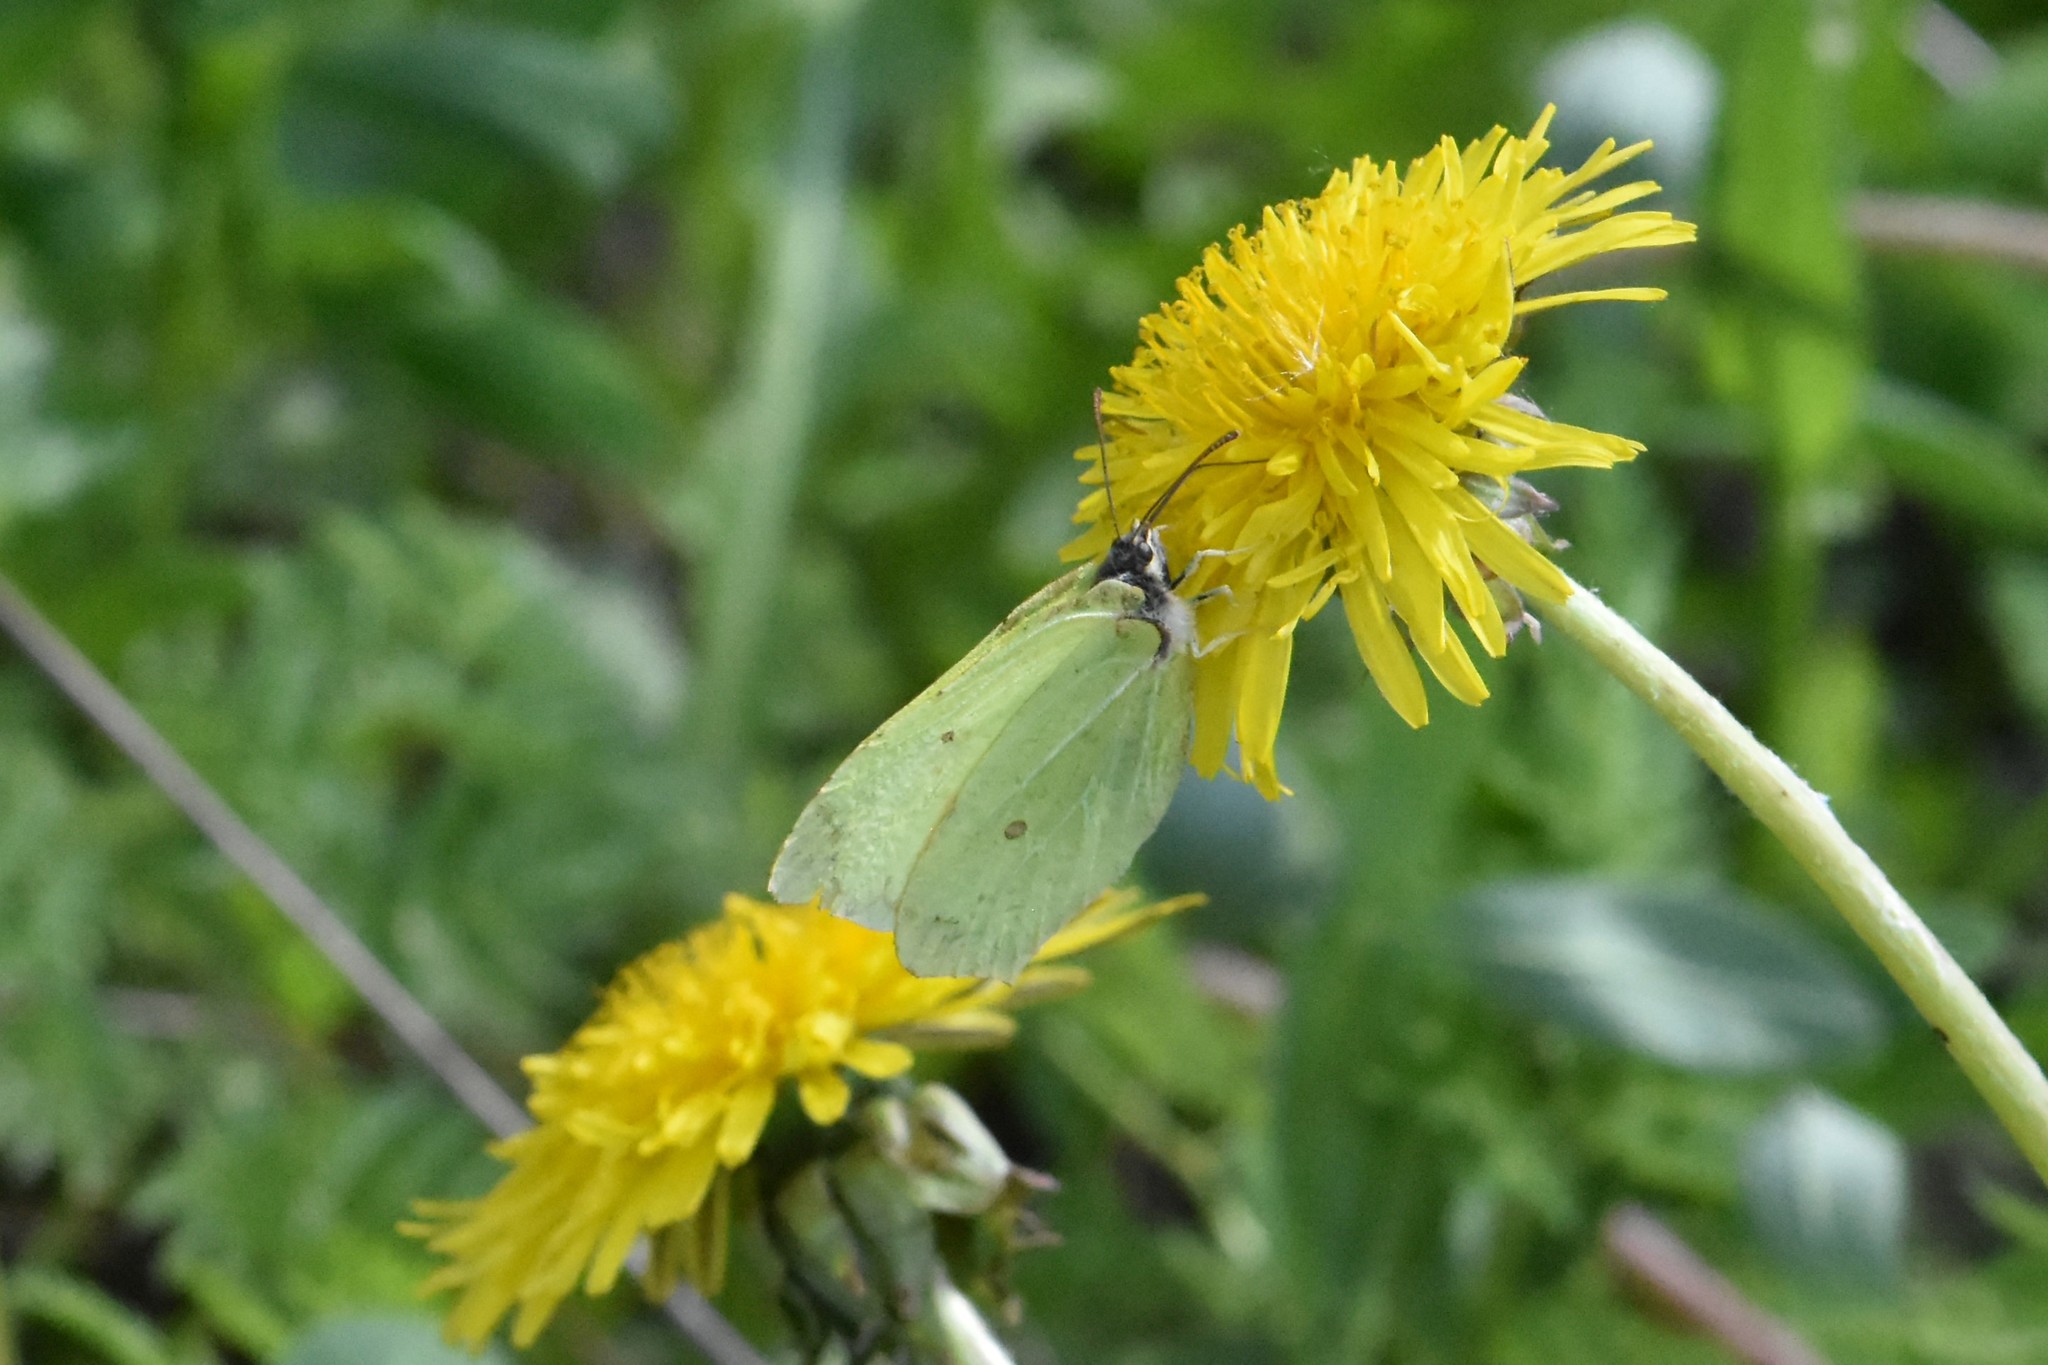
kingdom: Animalia
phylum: Arthropoda
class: Insecta
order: Lepidoptera
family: Pieridae
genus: Gonepteryx
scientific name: Gonepteryx rhamni
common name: Brimstone
